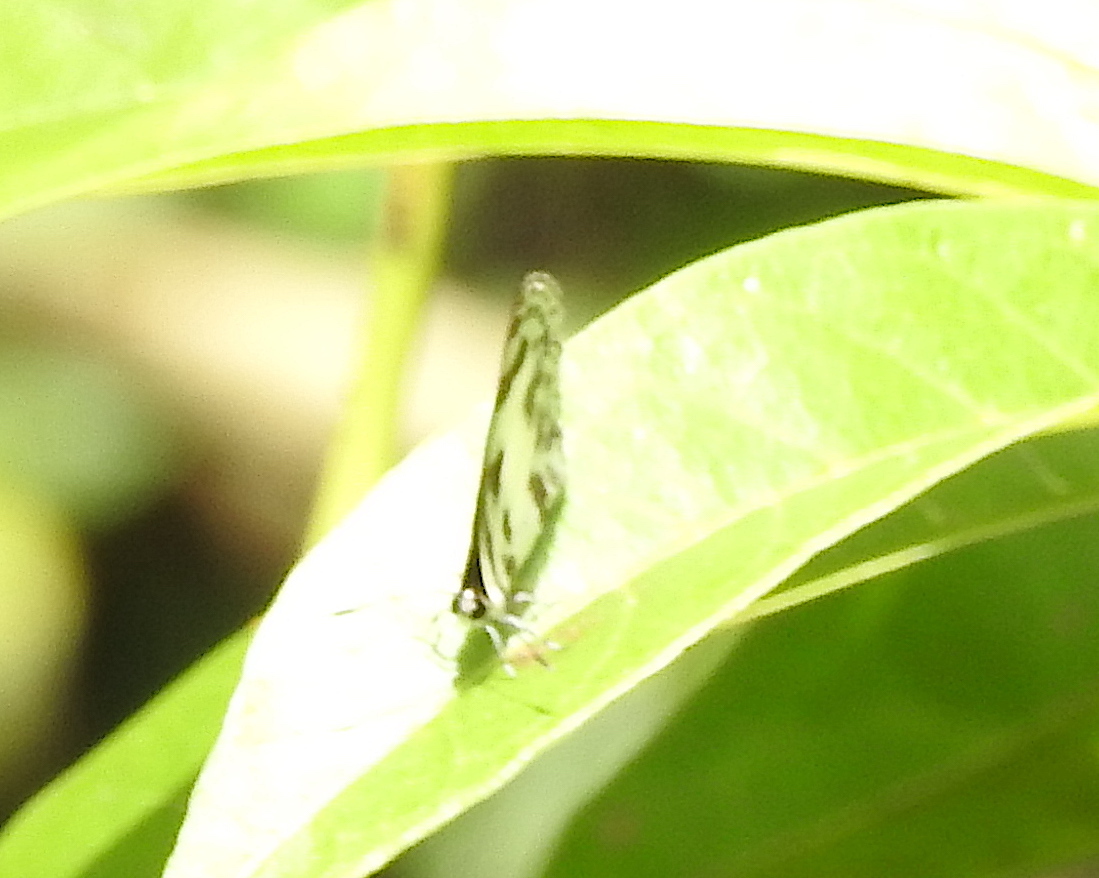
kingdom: Animalia
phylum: Arthropoda
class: Insecta
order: Lepidoptera
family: Lycaenidae
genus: Discolampa
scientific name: Discolampa ethion
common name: Banded blue pierrot
